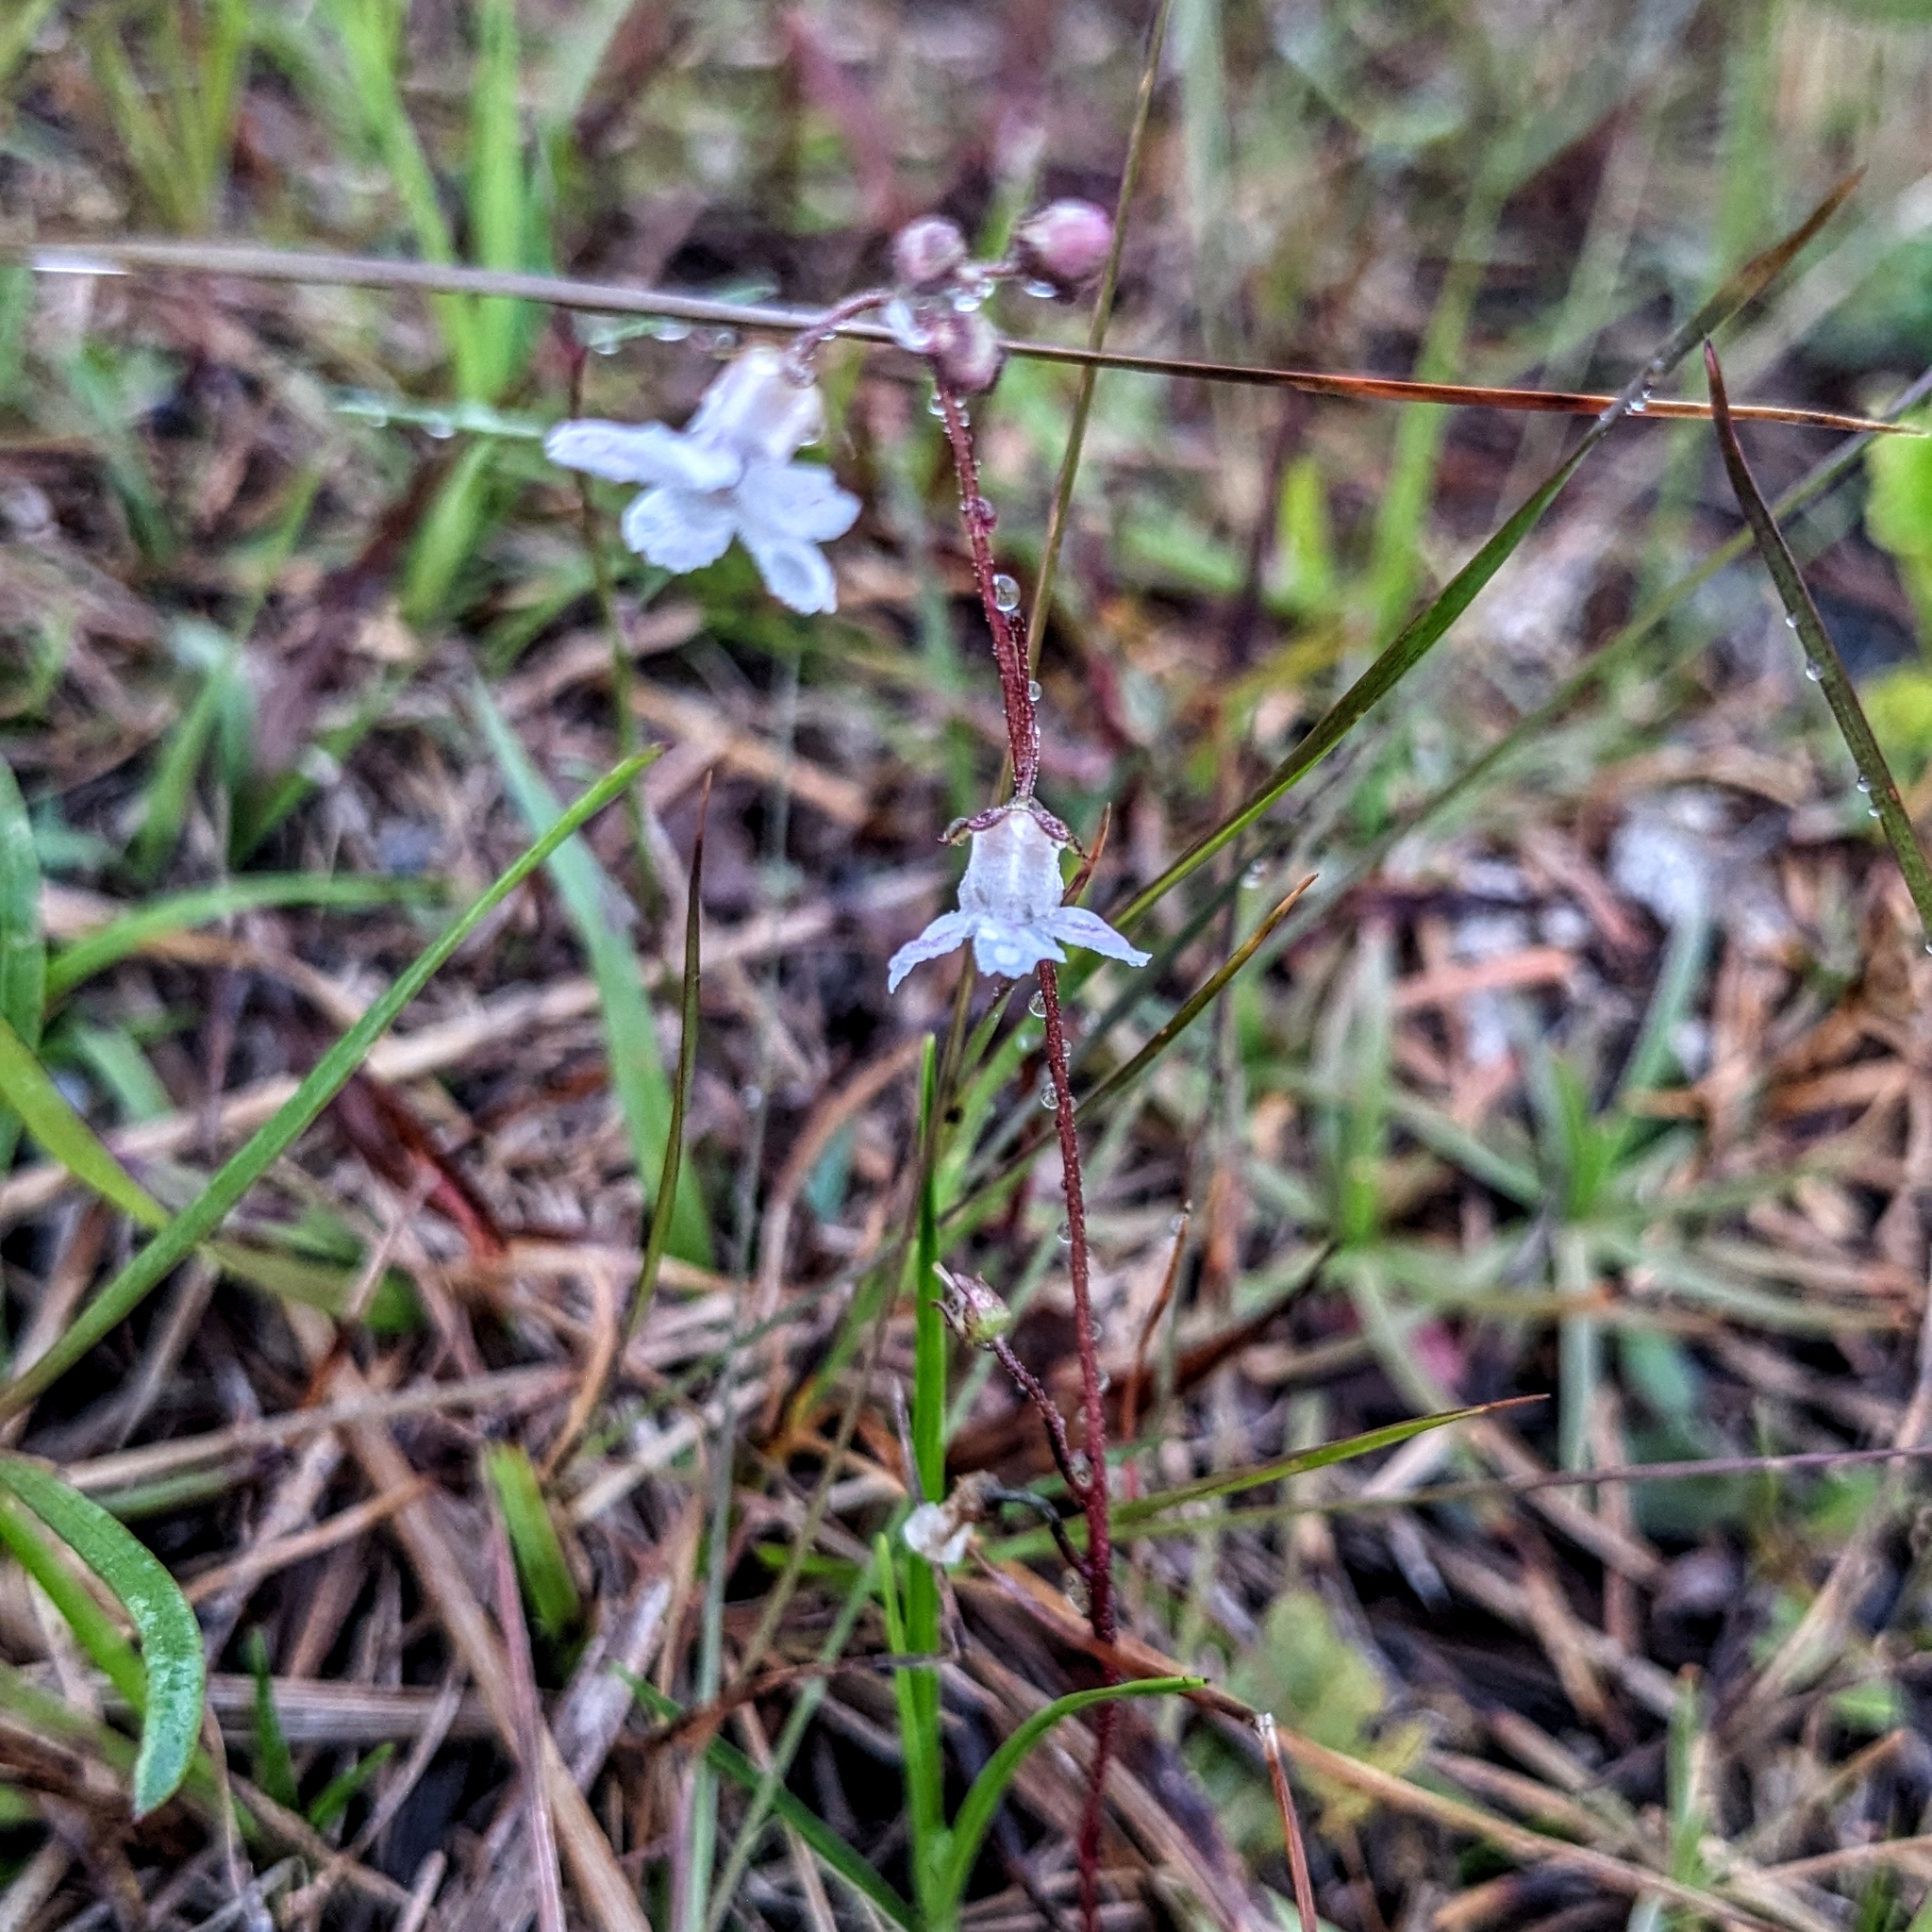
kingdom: Plantae
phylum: Tracheophyta
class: Magnoliopsida
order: Ericales
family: Primulaceae
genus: Samolus
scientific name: Samolus ebracteatus
